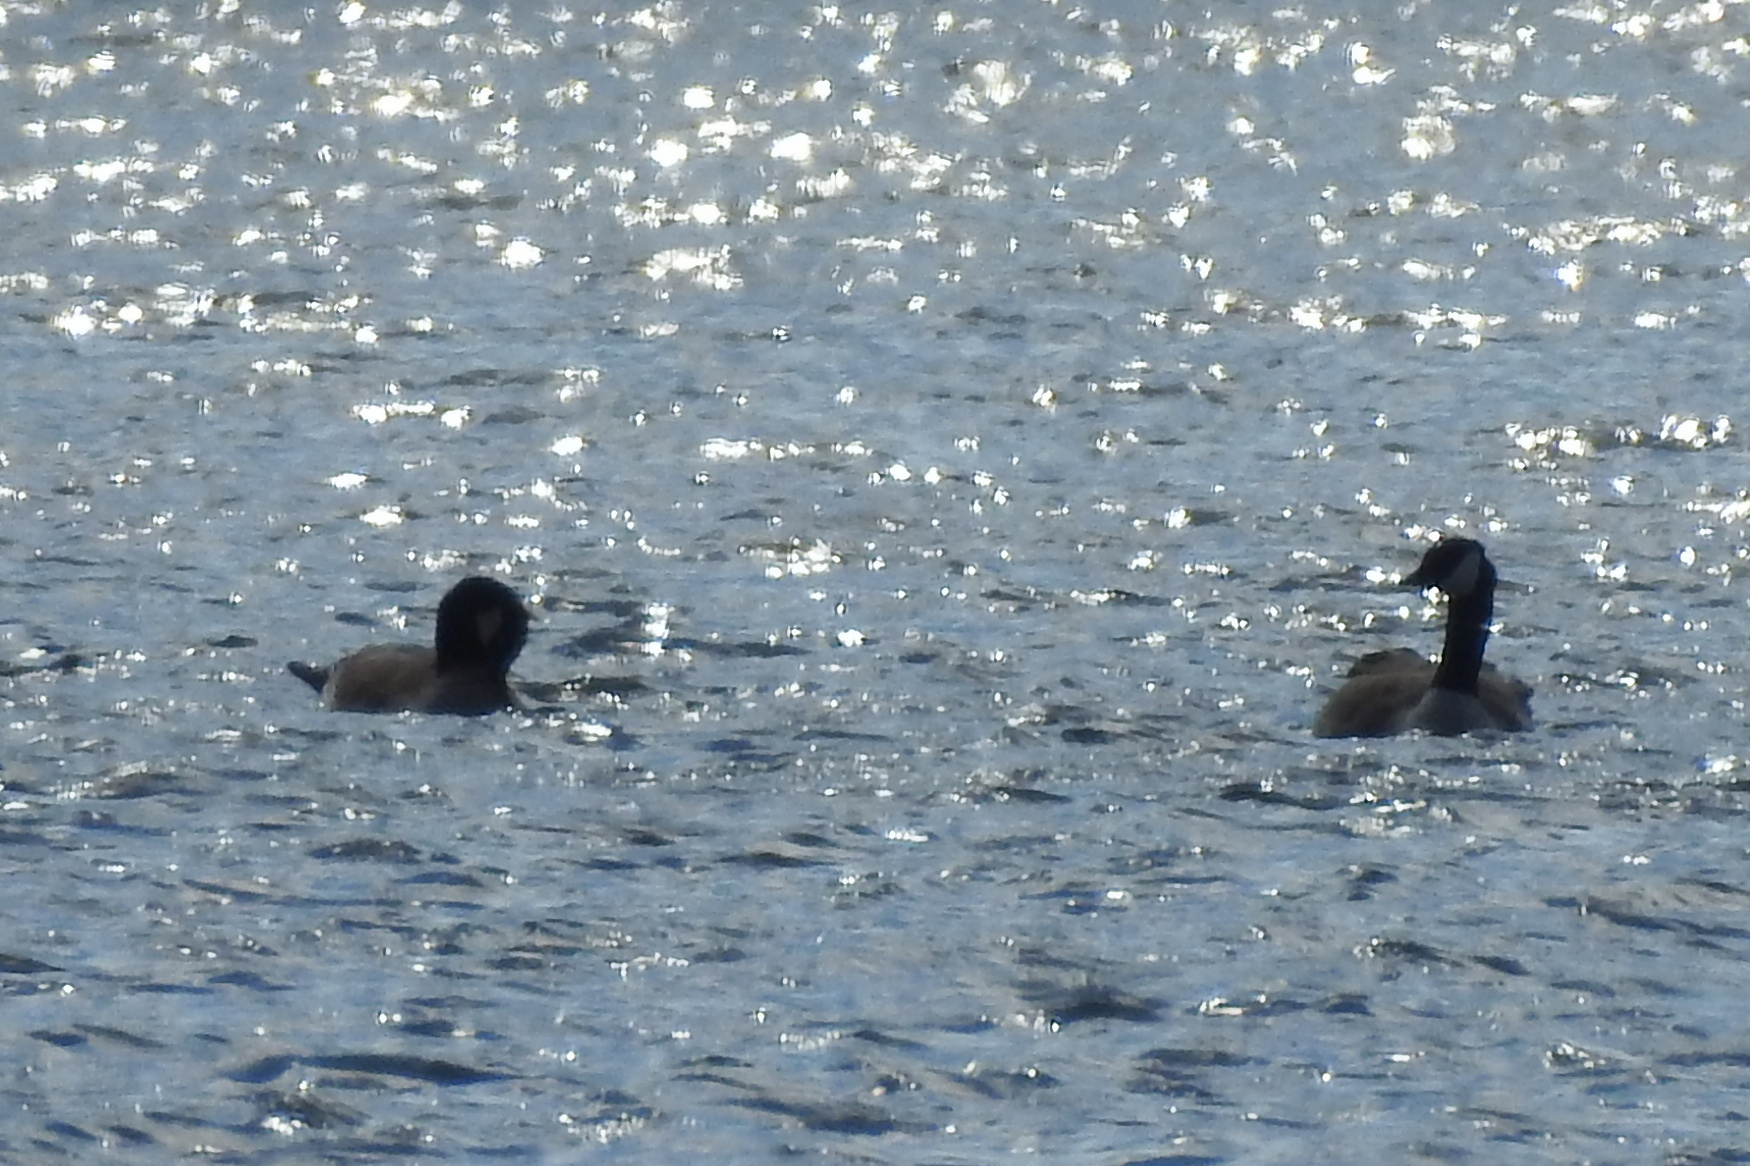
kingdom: Animalia
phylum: Chordata
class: Aves
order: Anseriformes
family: Anatidae
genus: Branta
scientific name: Branta canadensis
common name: Canada goose
